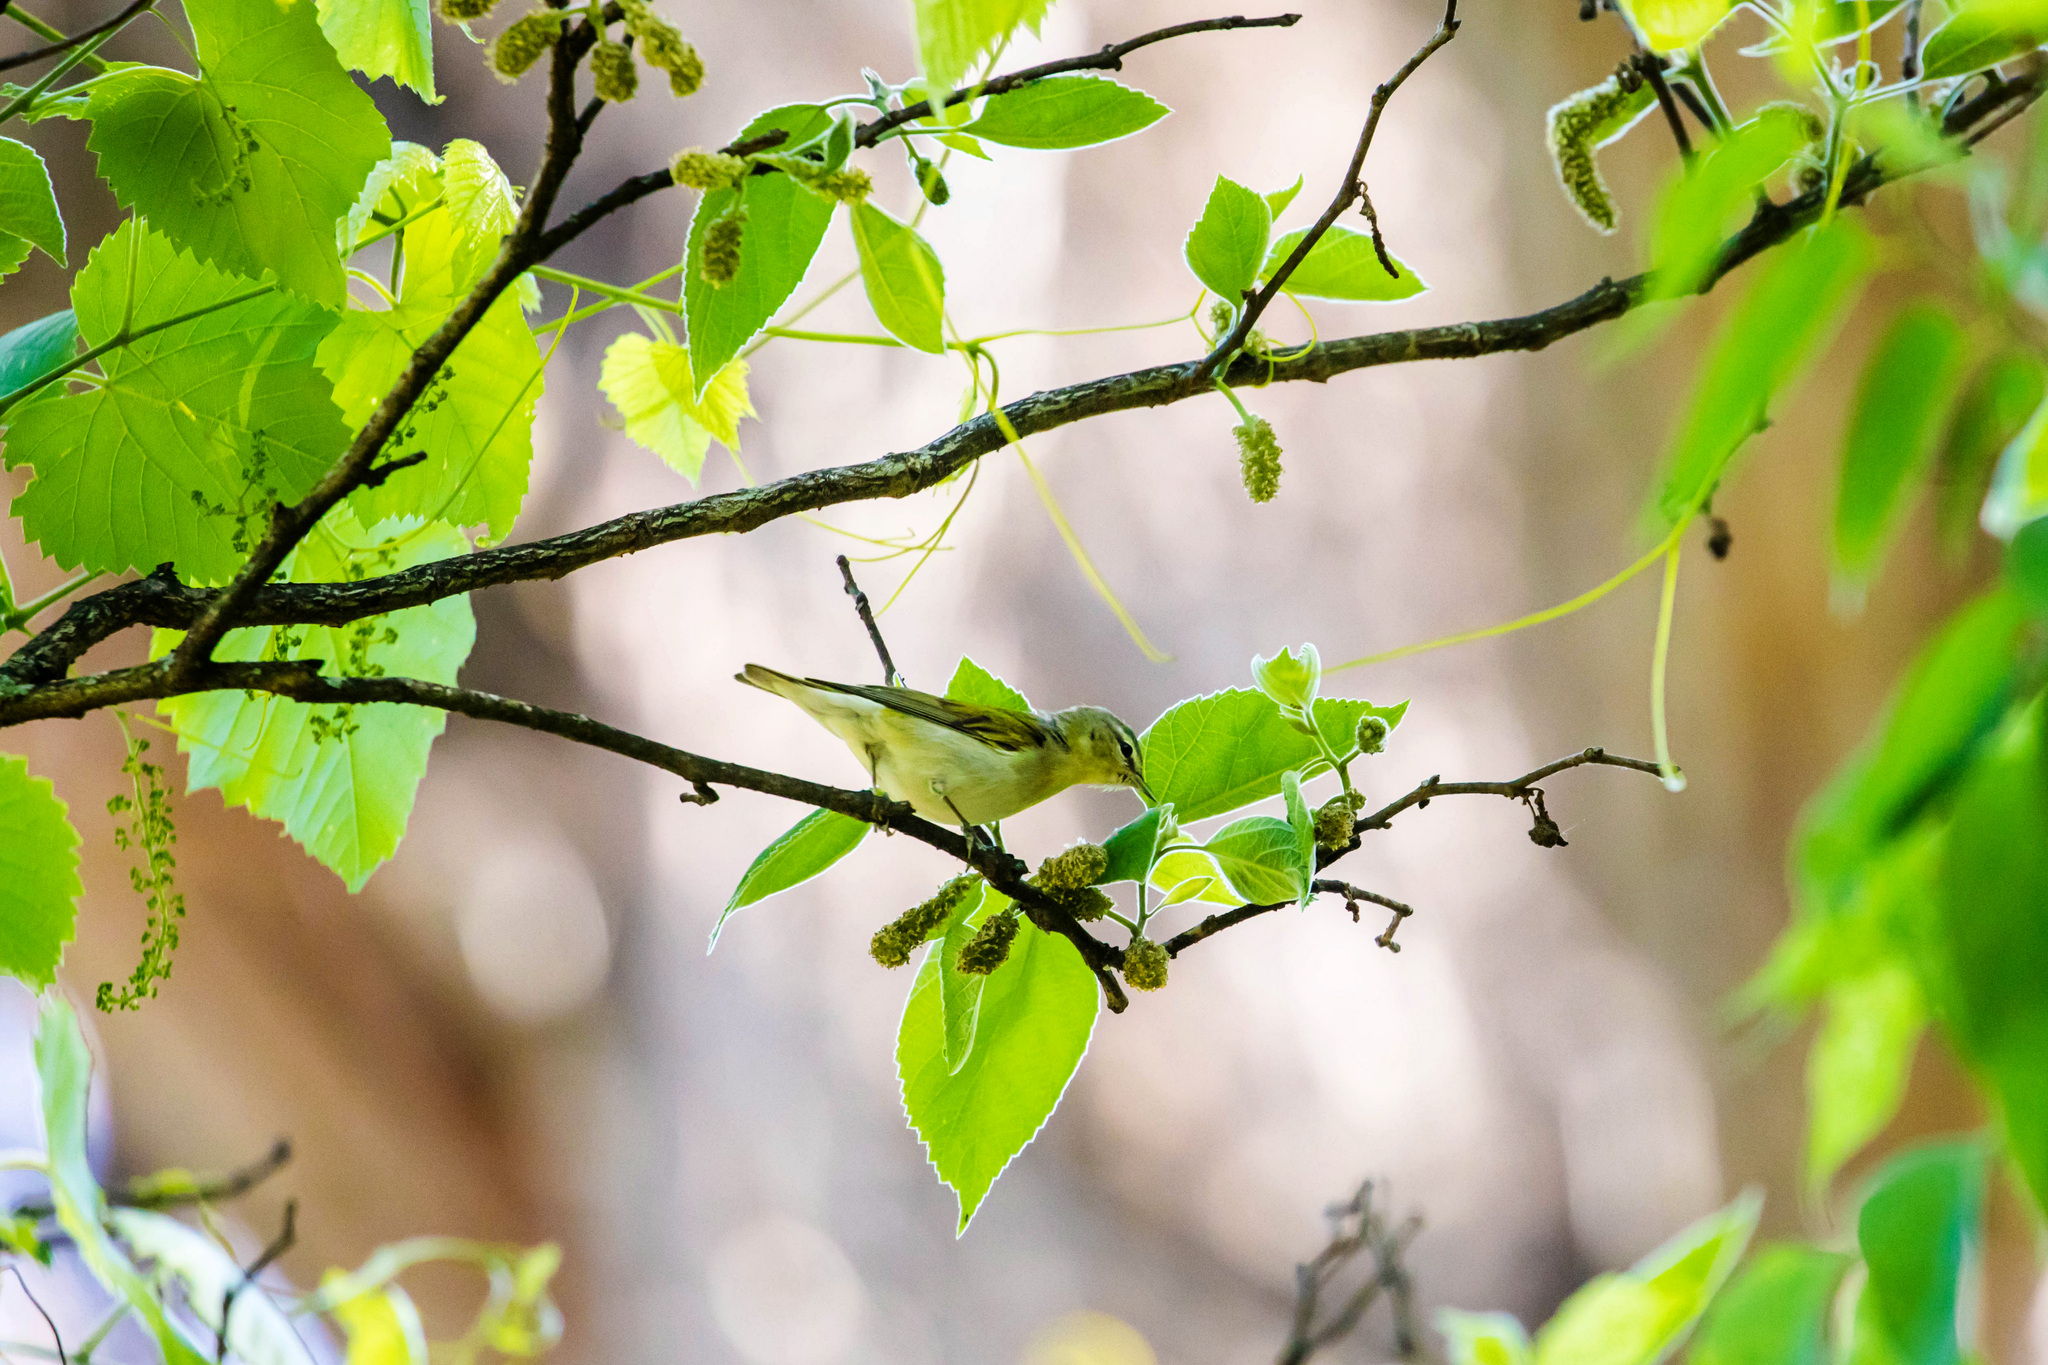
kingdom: Animalia
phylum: Chordata
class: Aves
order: Passeriformes
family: Parulidae
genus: Leiothlypis
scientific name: Leiothlypis peregrina
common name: Tennessee warbler
